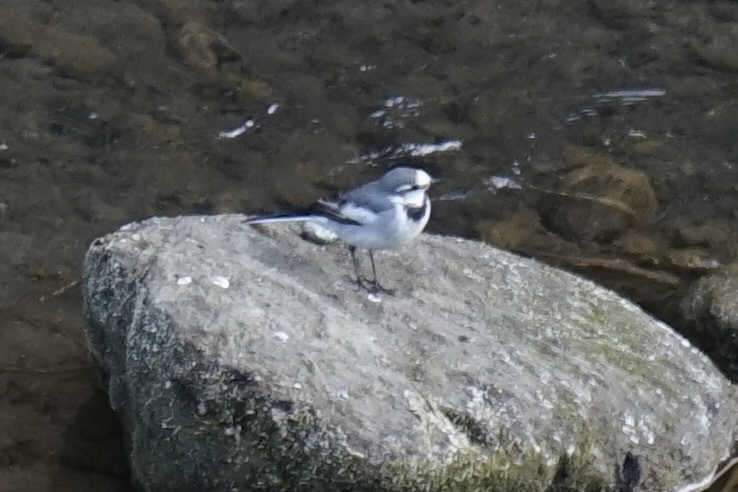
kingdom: Animalia
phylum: Chordata
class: Aves
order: Passeriformes
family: Motacillidae
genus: Motacilla
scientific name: Motacilla alba
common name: White wagtail
